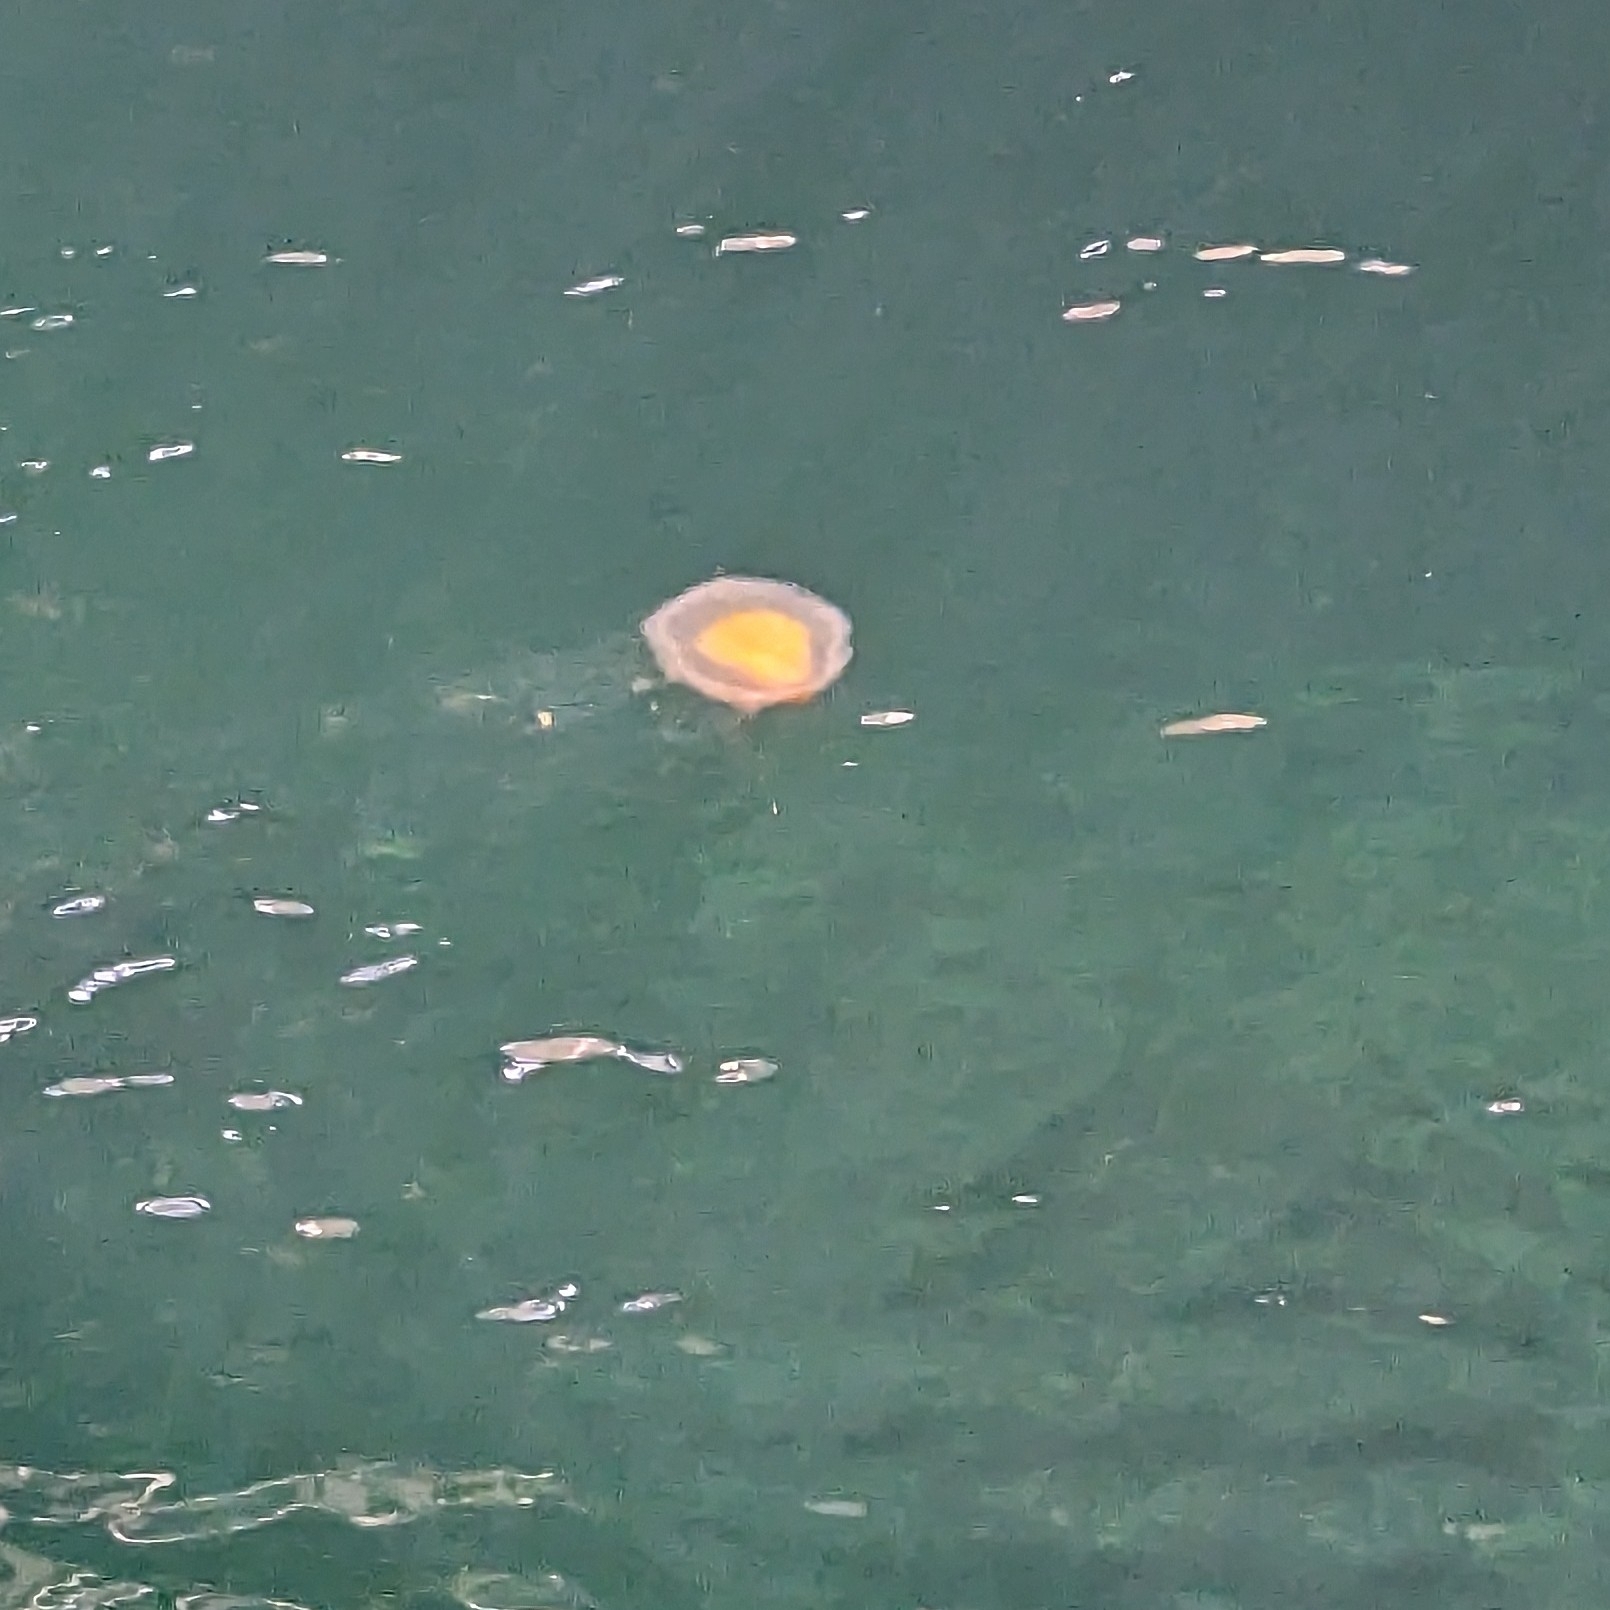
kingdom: Animalia
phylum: Cnidaria
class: Scyphozoa
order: Semaeostomeae
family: Phacellophoridae
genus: Phacellophora
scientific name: Phacellophora camtschatica
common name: Fried-egg jellyfish
